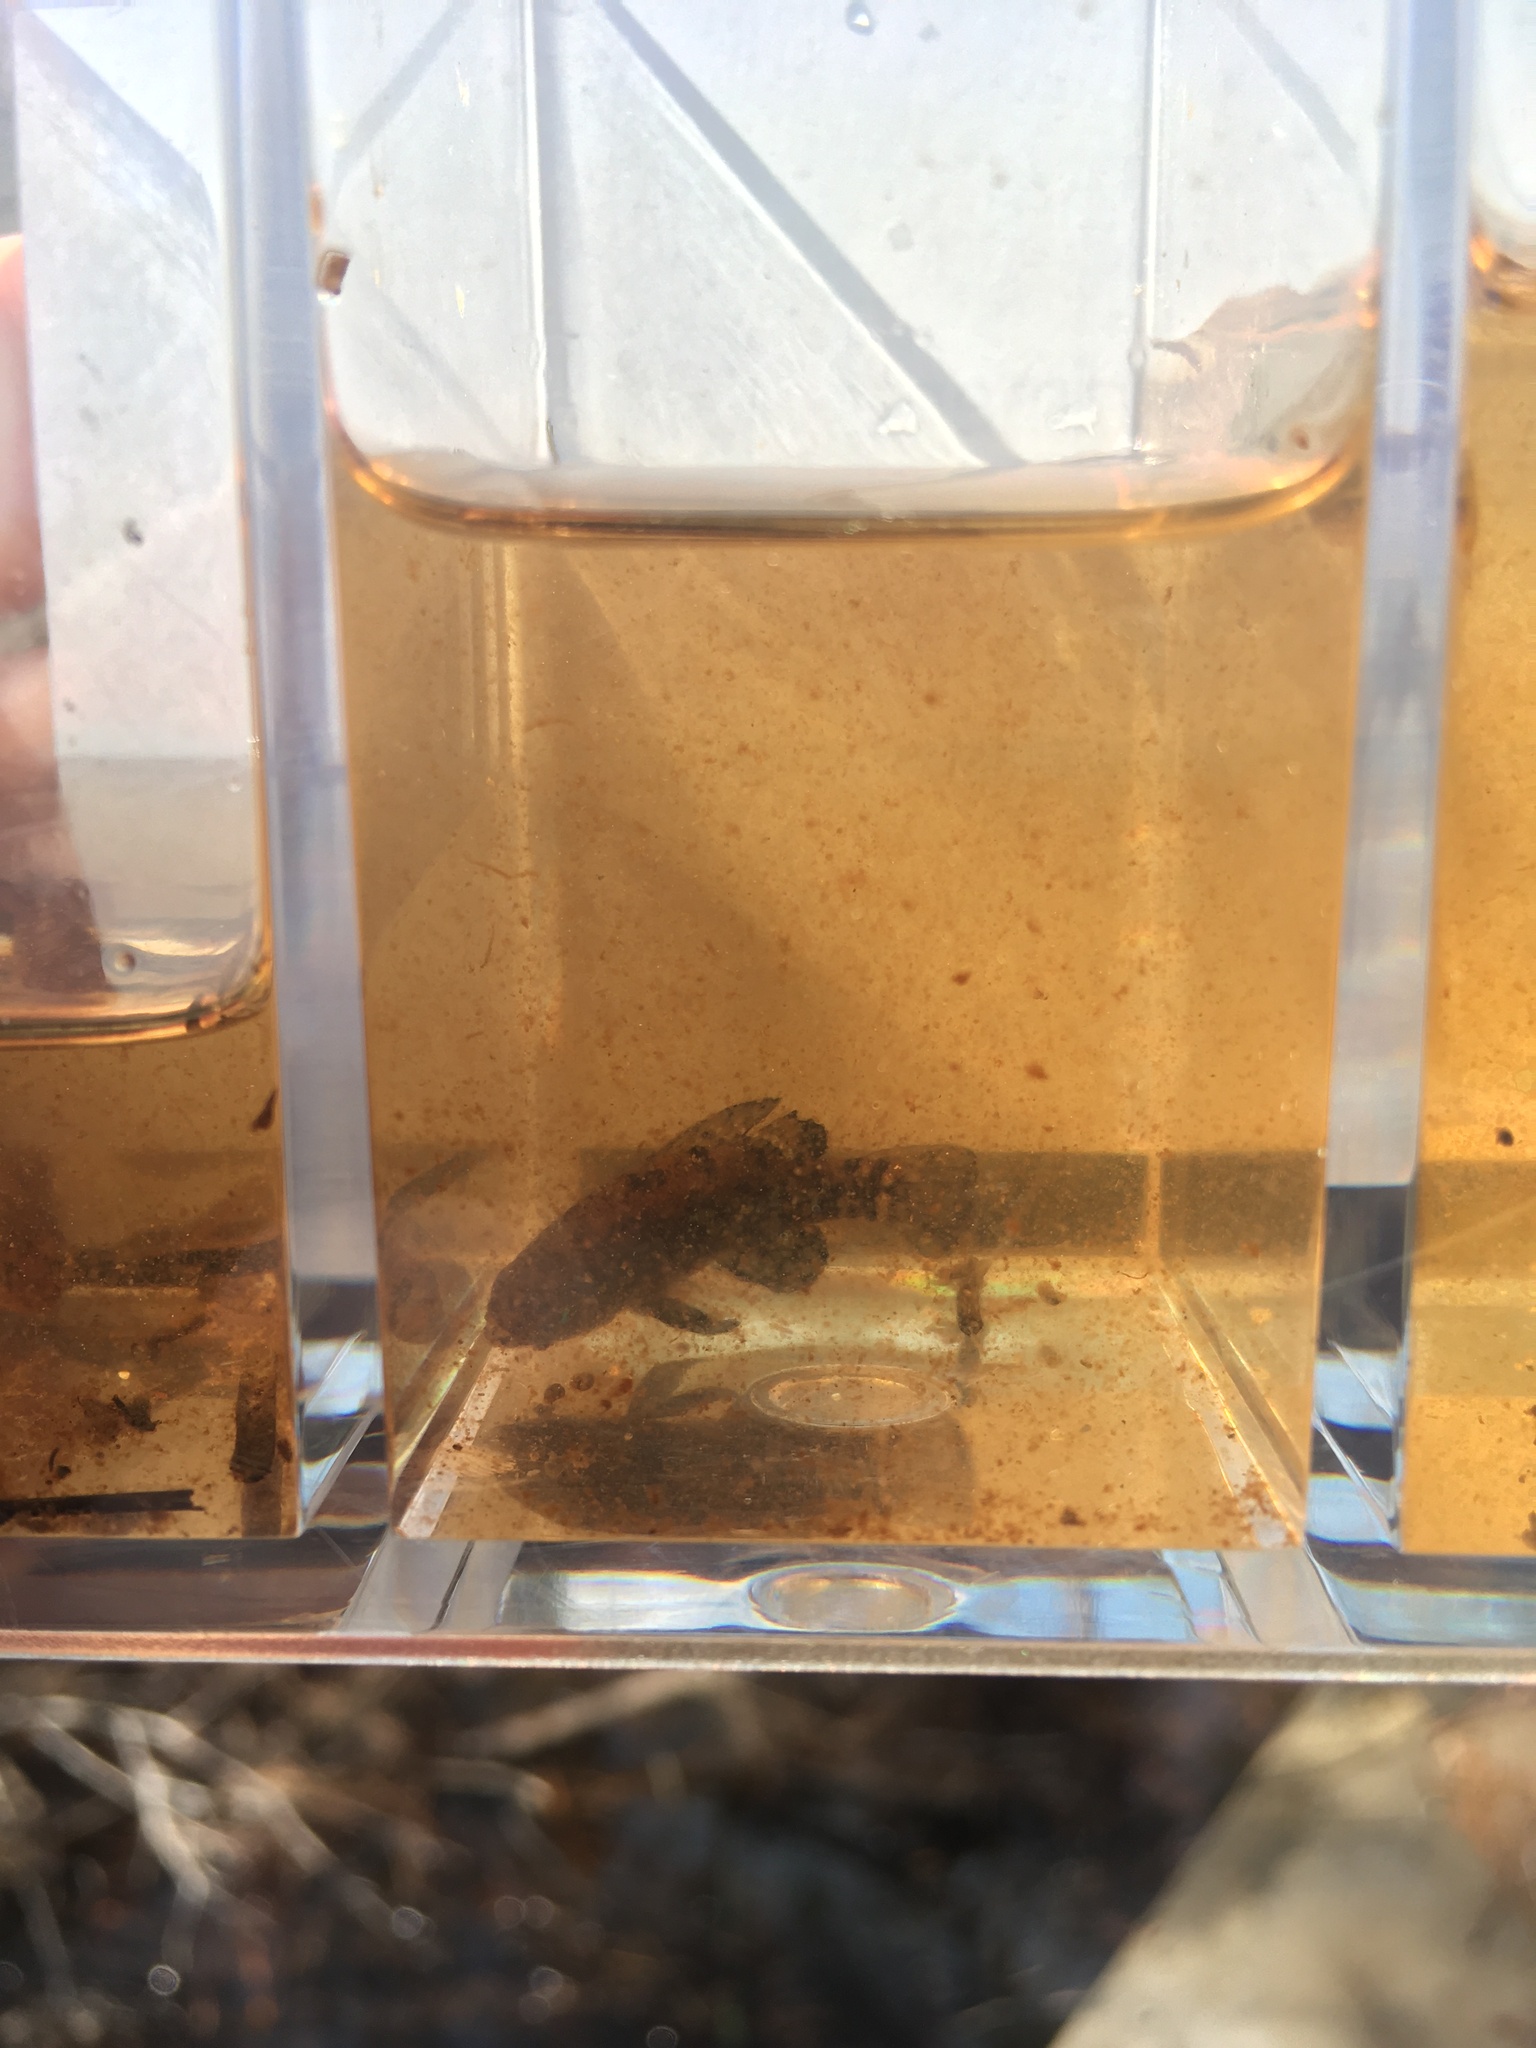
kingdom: Animalia
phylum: Chordata
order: Perciformes
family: Elassomatidae
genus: Elassoma
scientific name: Elassoma evergladei
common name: Everglades pygmy sunfish
